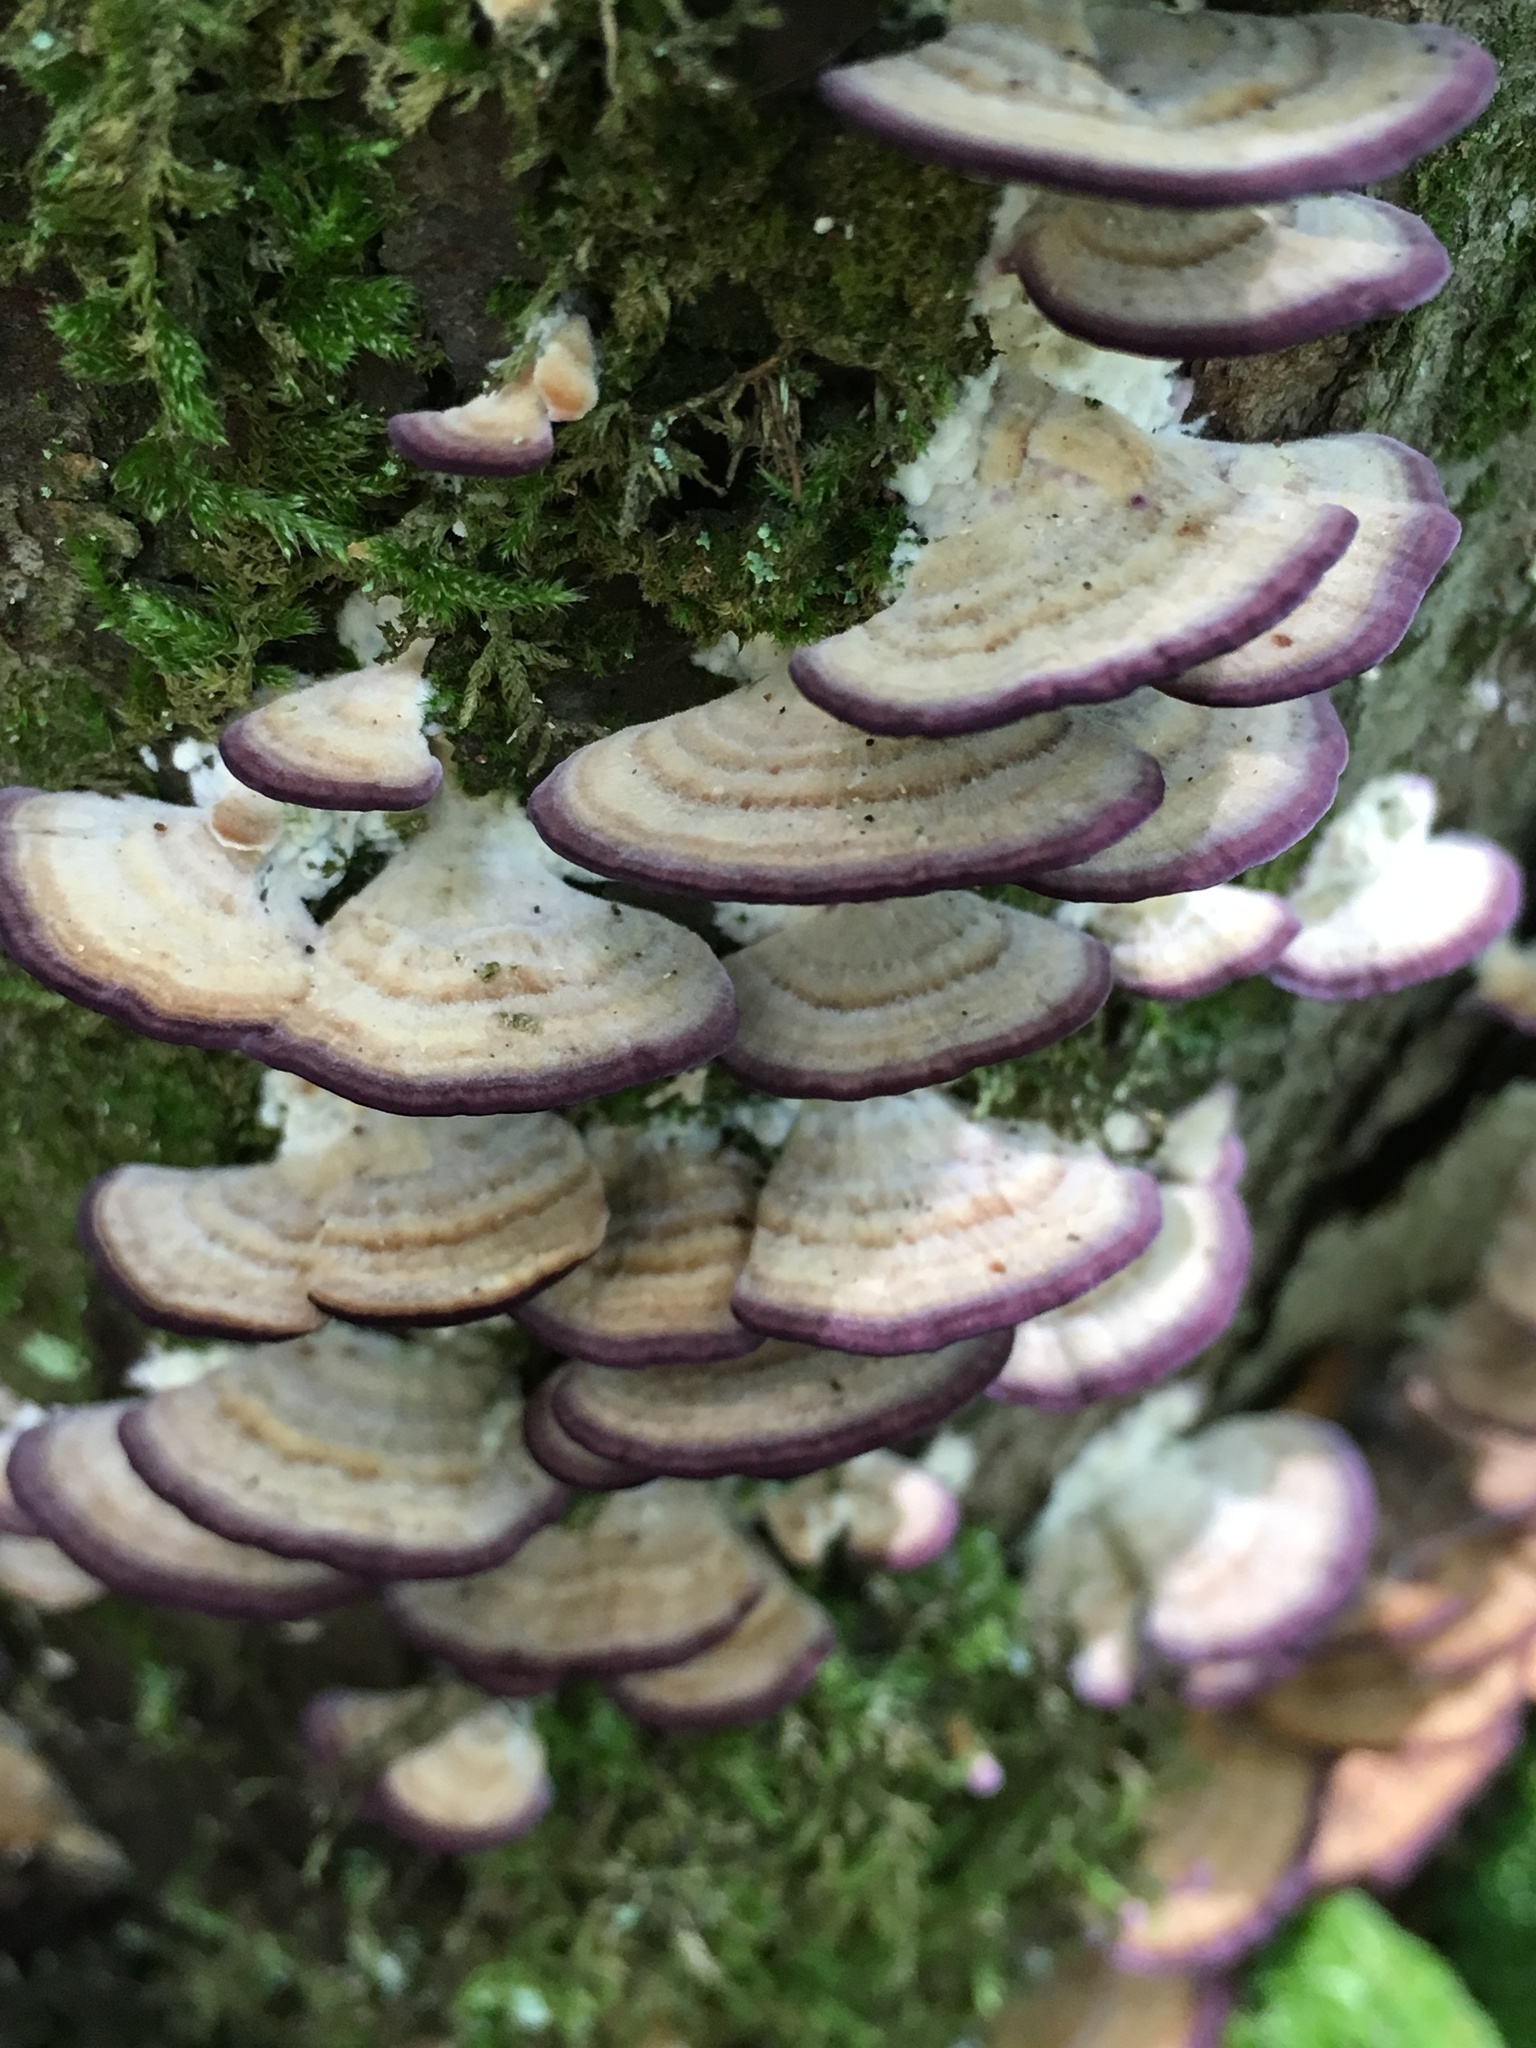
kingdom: Fungi
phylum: Basidiomycota
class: Agaricomycetes
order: Hymenochaetales
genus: Trichaptum
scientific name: Trichaptum biforme
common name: Violet-toothed polypore
